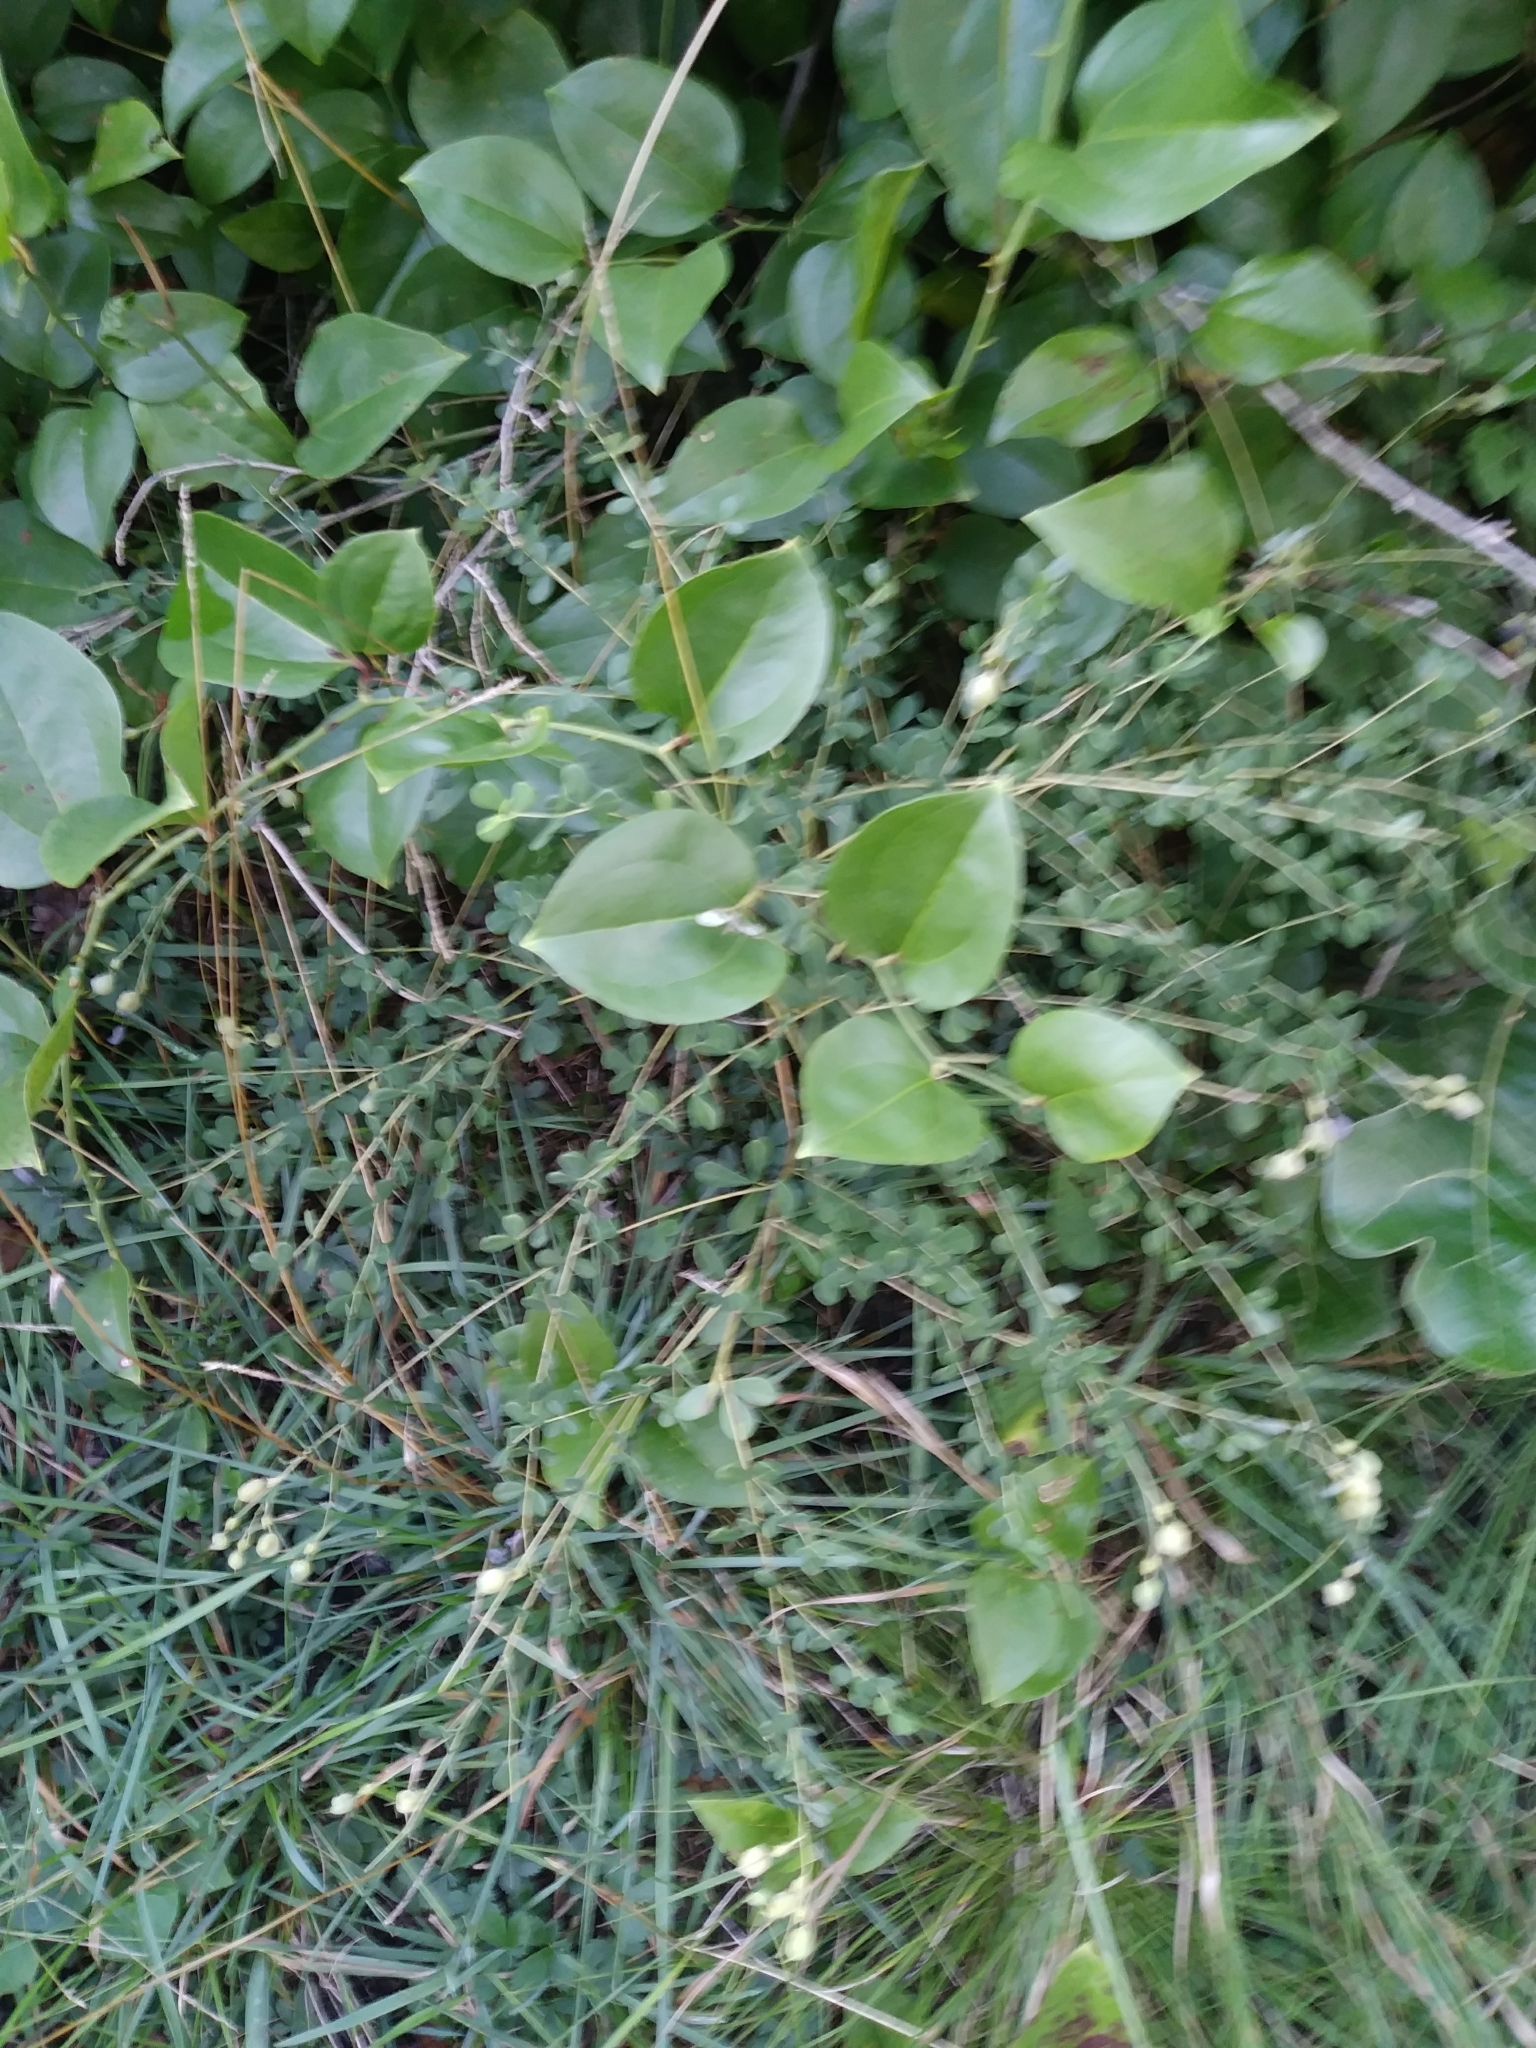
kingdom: Plantae
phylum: Tracheophyta
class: Magnoliopsida
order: Fabales
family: Fabaceae
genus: Baptisia
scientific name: Baptisia tinctoria
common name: Wild indigo
